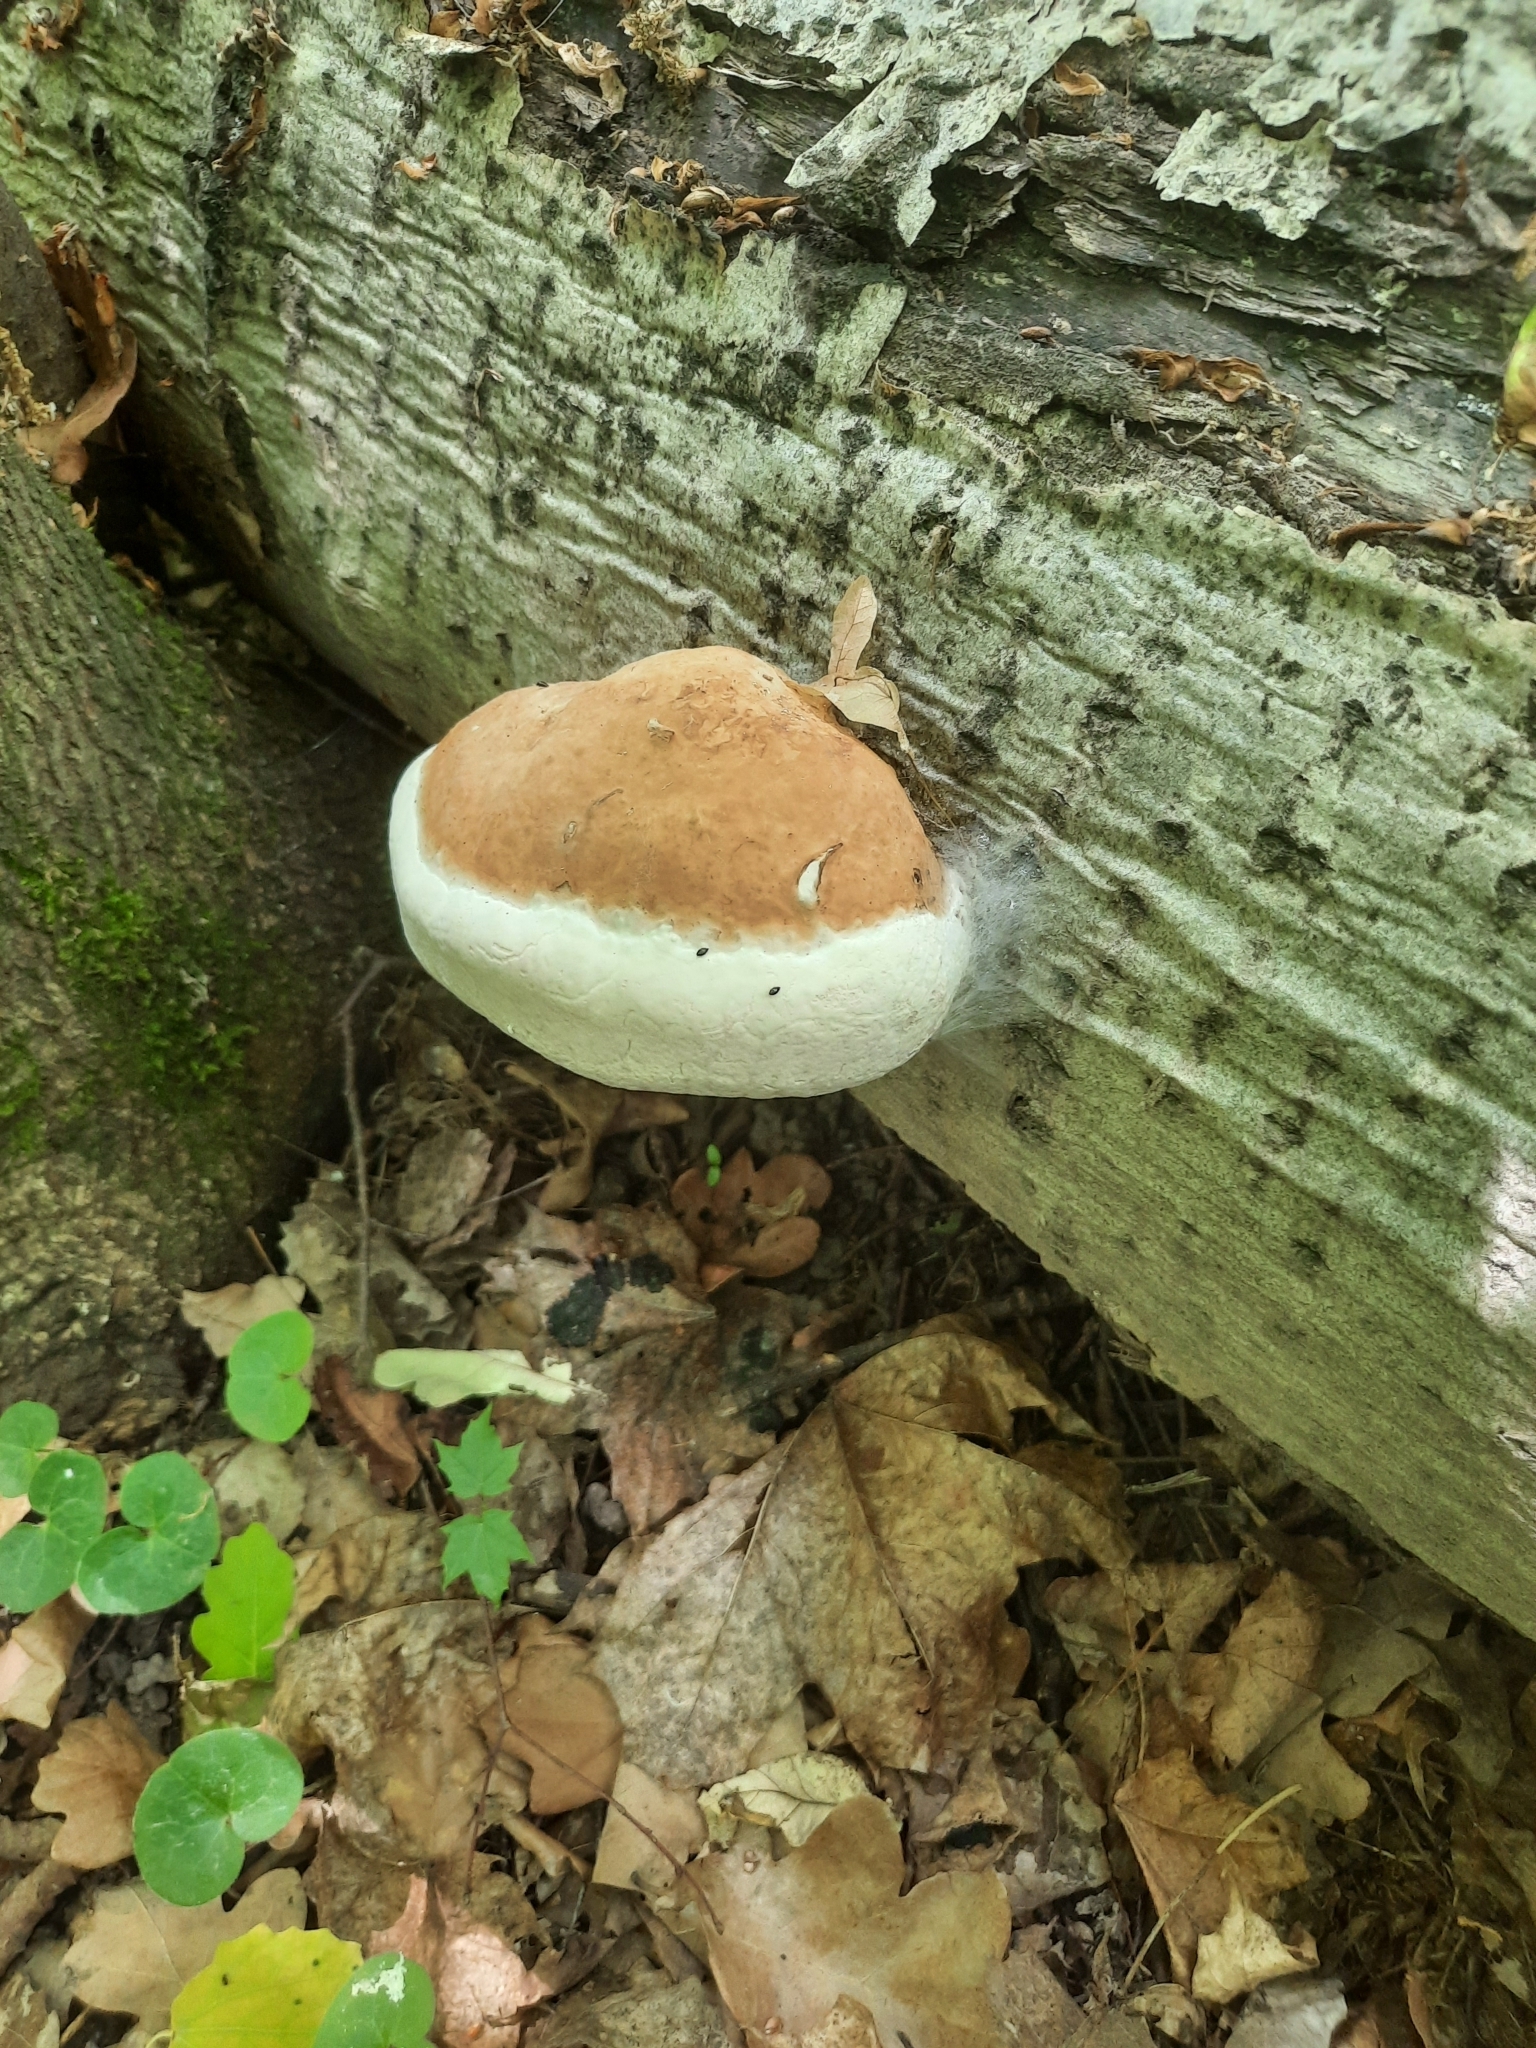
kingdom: Fungi
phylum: Basidiomycota
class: Agaricomycetes
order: Polyporales
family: Polyporaceae
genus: Fomes
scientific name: Fomes fomentarius
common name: Hoof fungus
